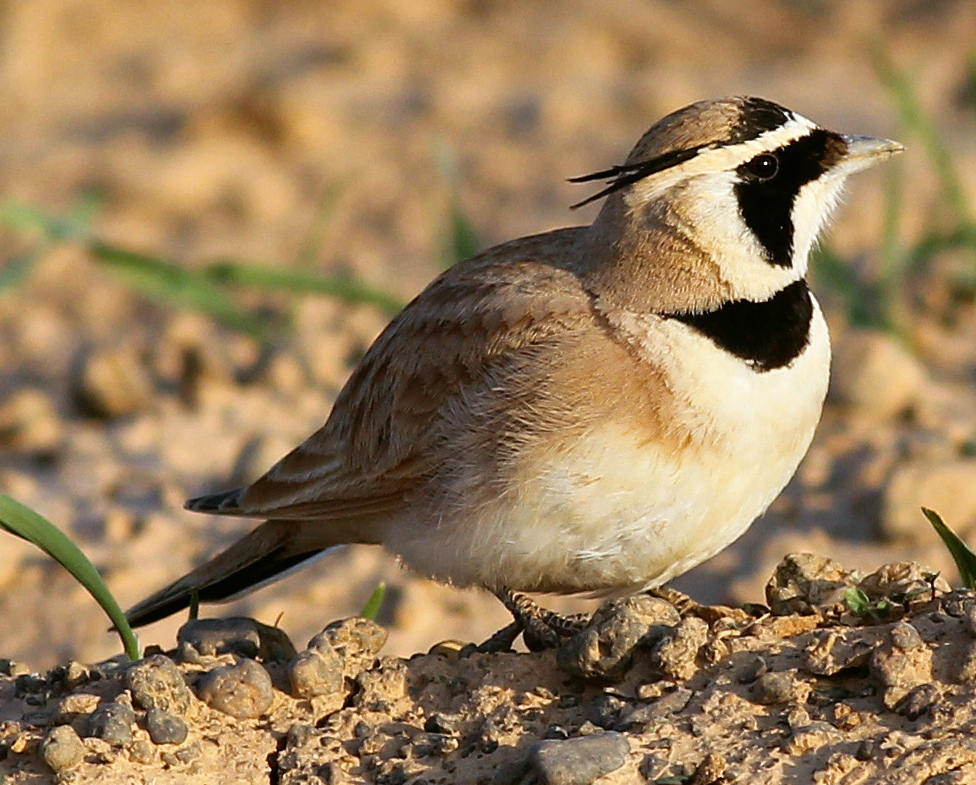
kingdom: Animalia
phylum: Chordata
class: Aves
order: Passeriformes
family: Alaudidae
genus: Eremophila
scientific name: Eremophila bilopha
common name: Temminck's lark
